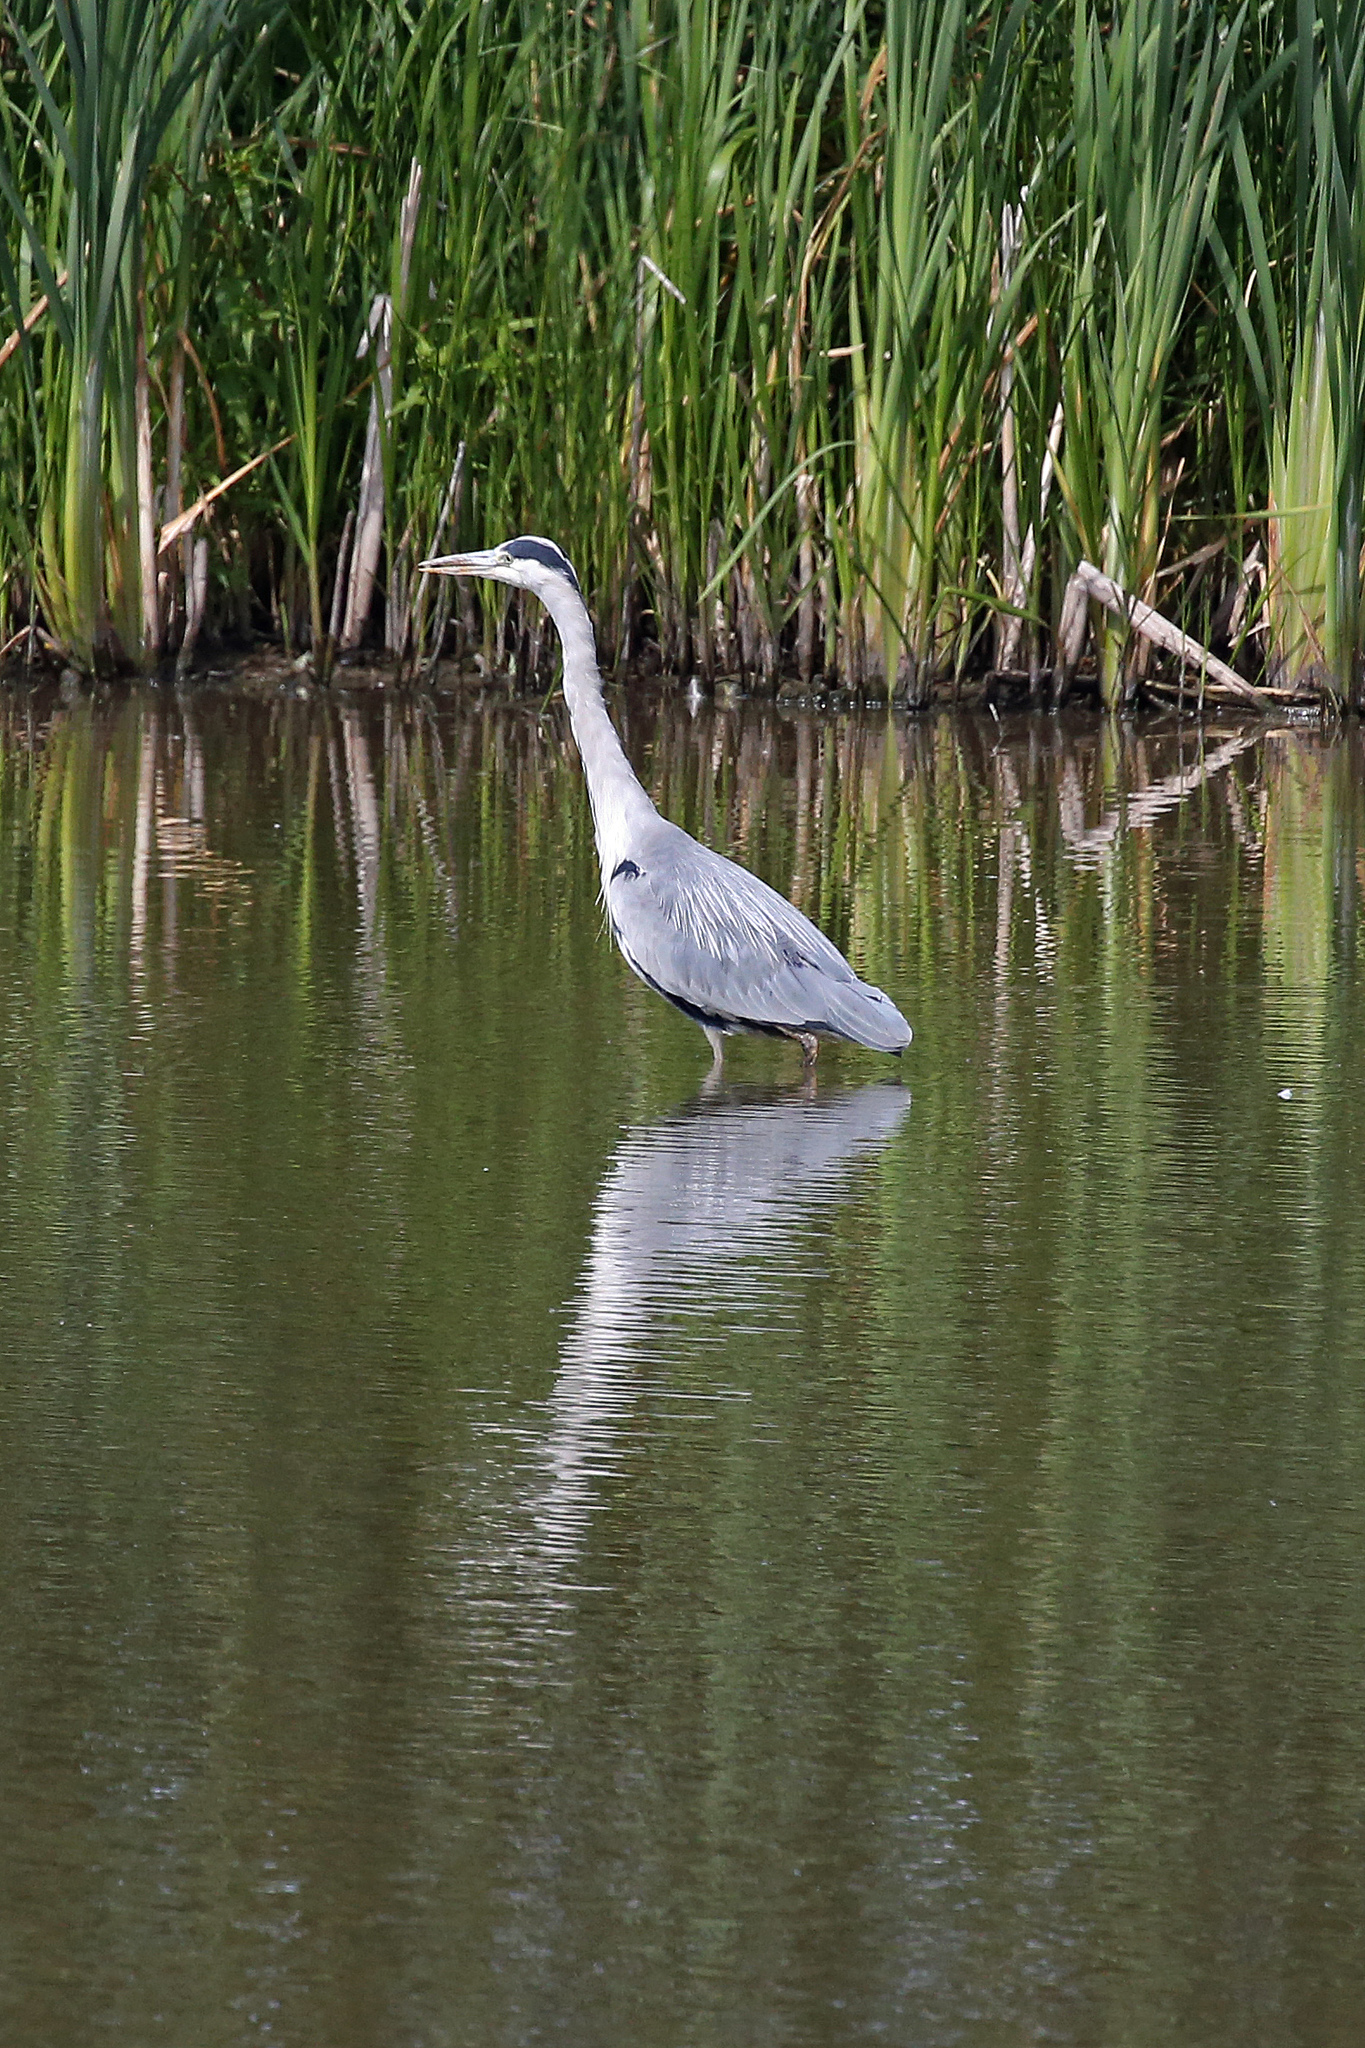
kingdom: Animalia
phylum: Chordata
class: Aves
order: Pelecaniformes
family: Ardeidae
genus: Ardea
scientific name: Ardea cinerea
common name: Grey heron
